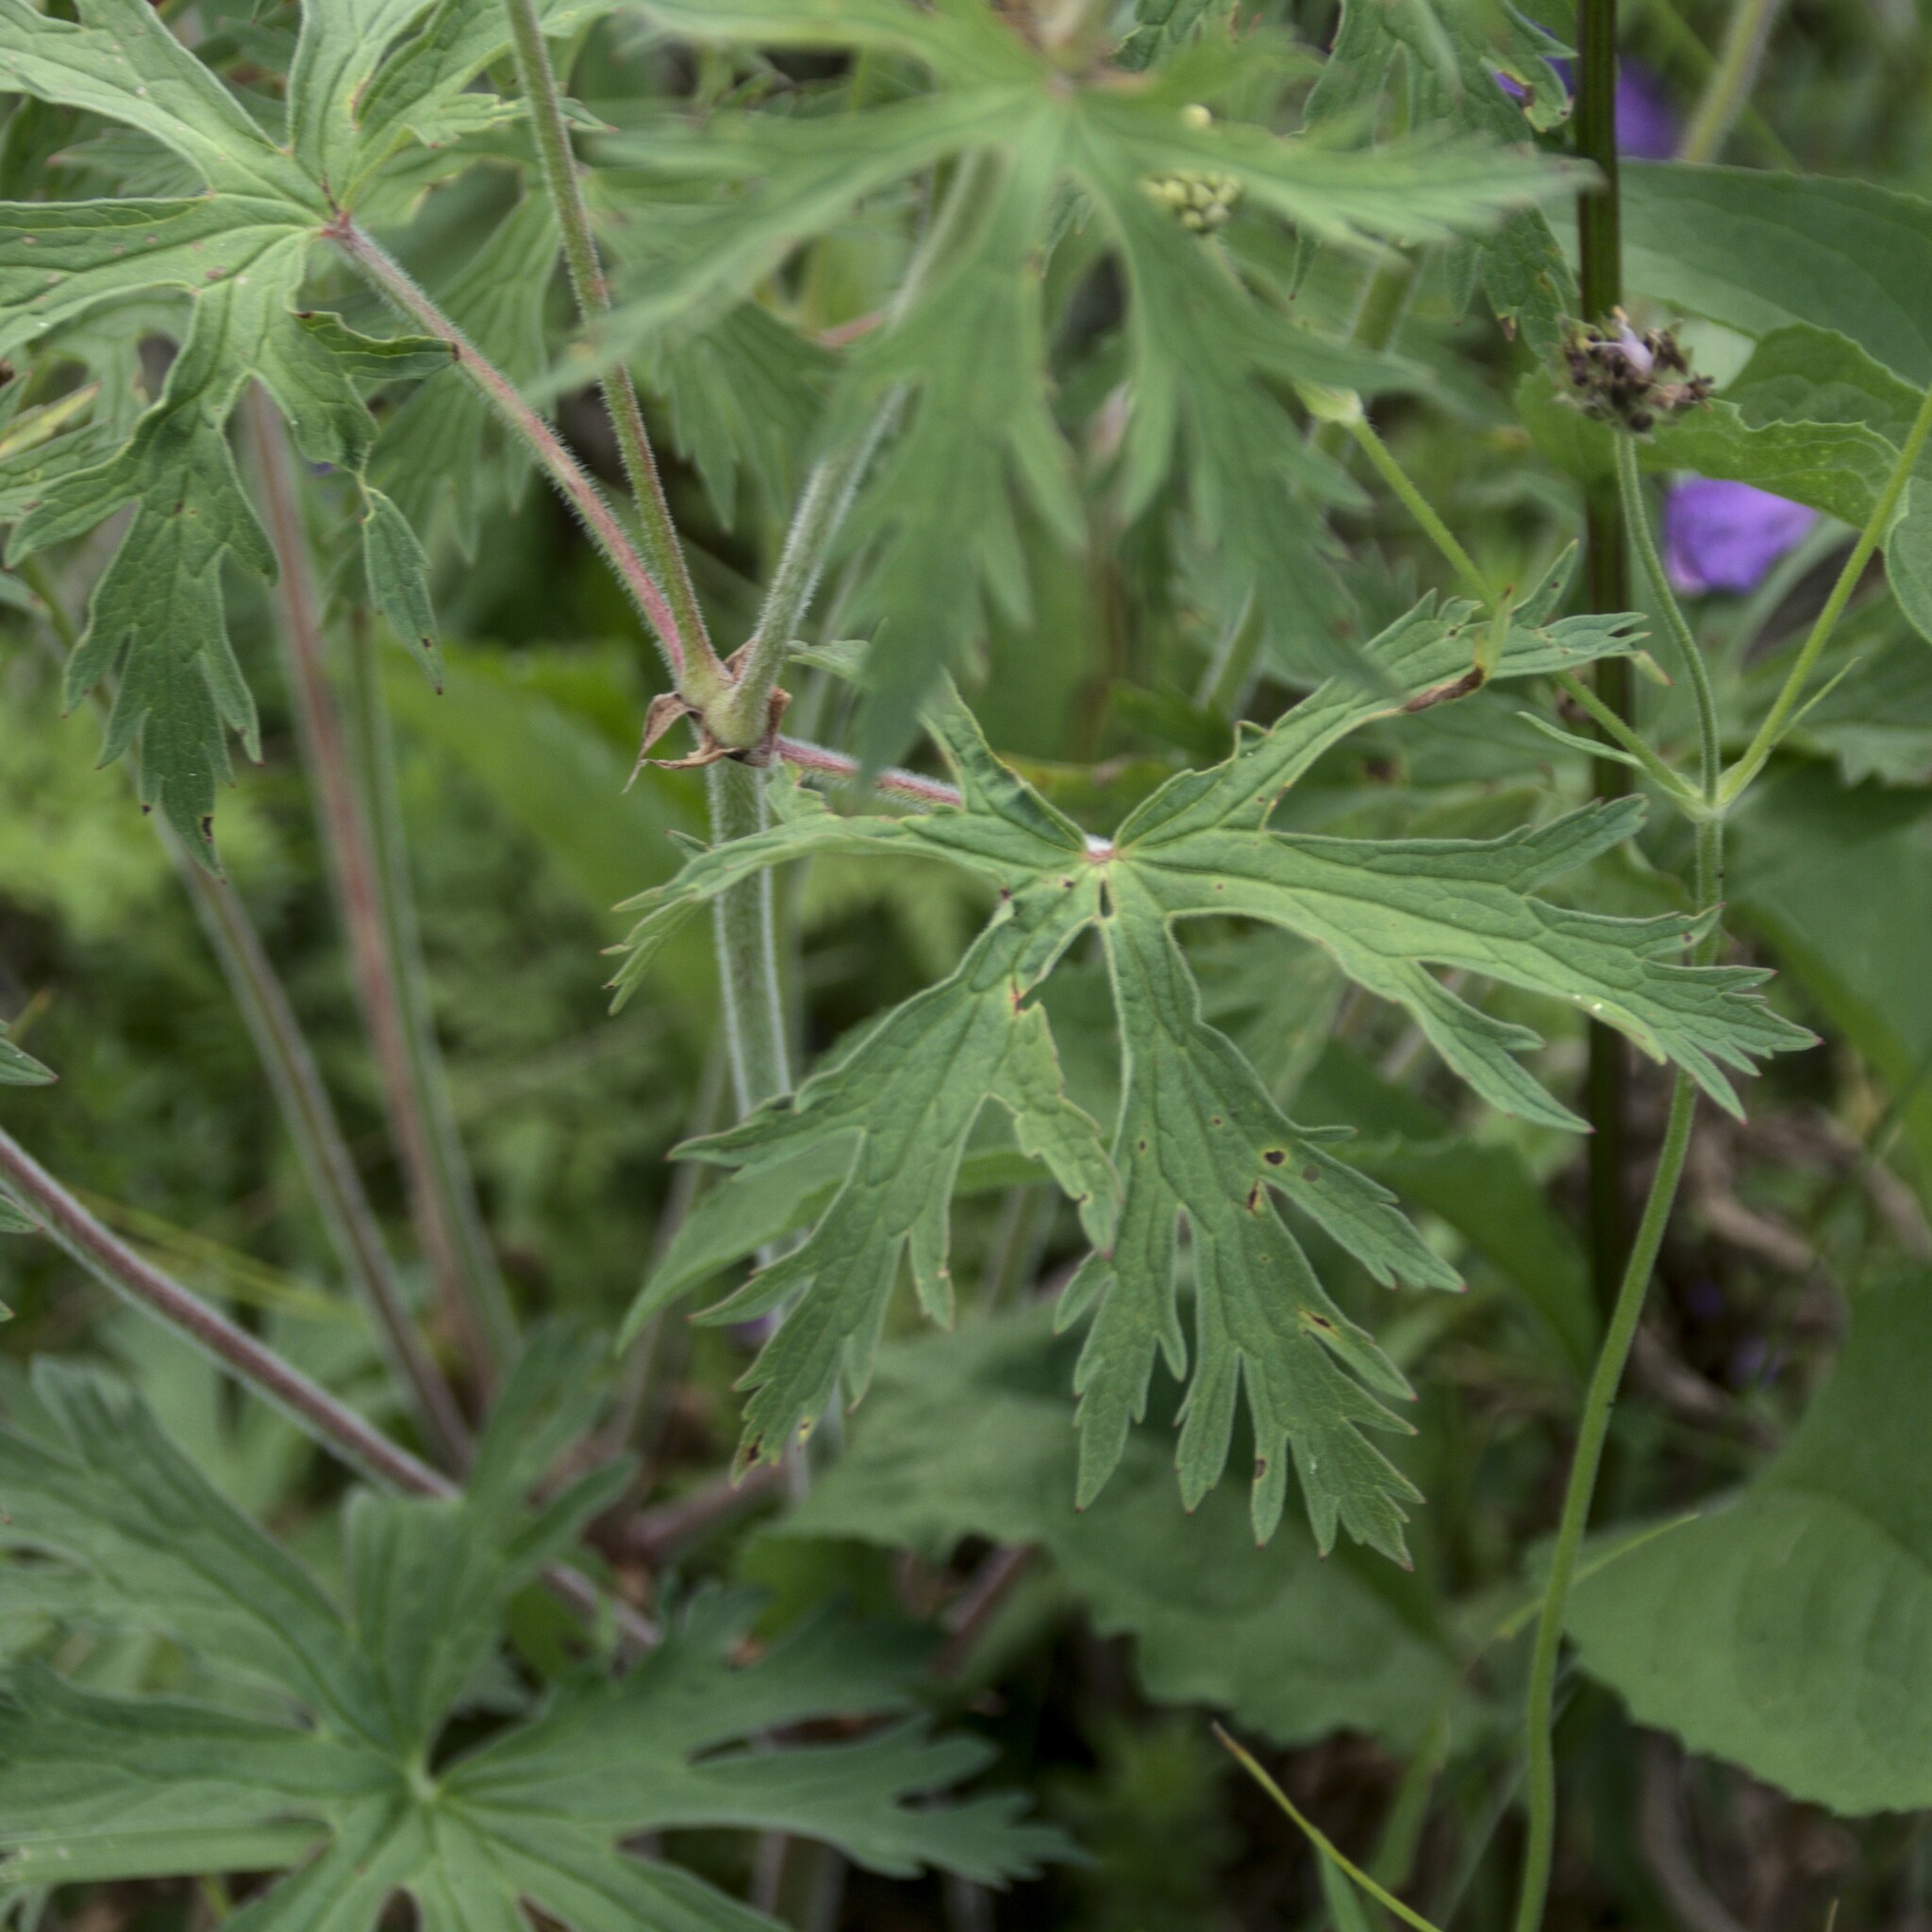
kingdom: Plantae
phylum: Tracheophyta
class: Magnoliopsida
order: Geraniales
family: Geraniaceae
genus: Geranium
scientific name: Geranium pratense
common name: Meadow crane's-bill
